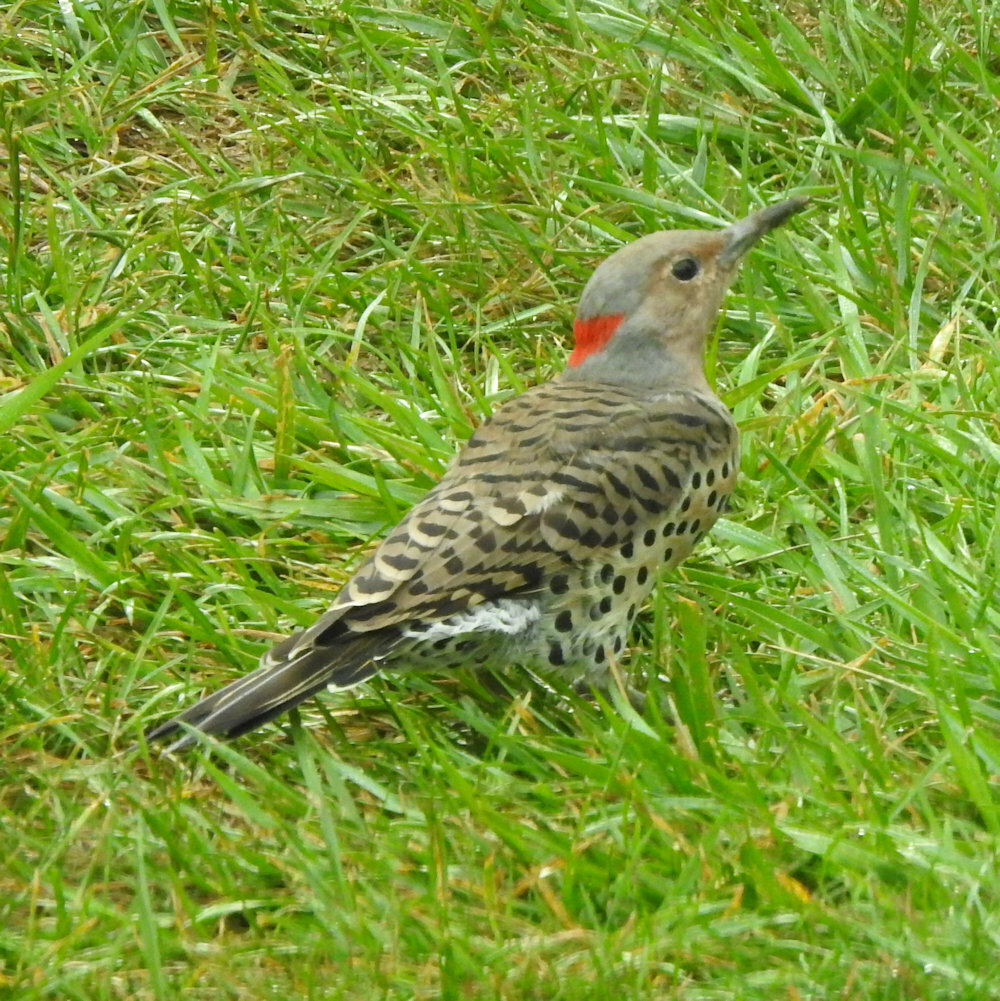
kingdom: Animalia
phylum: Chordata
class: Aves
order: Piciformes
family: Picidae
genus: Colaptes
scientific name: Colaptes auratus
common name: Northern flicker
